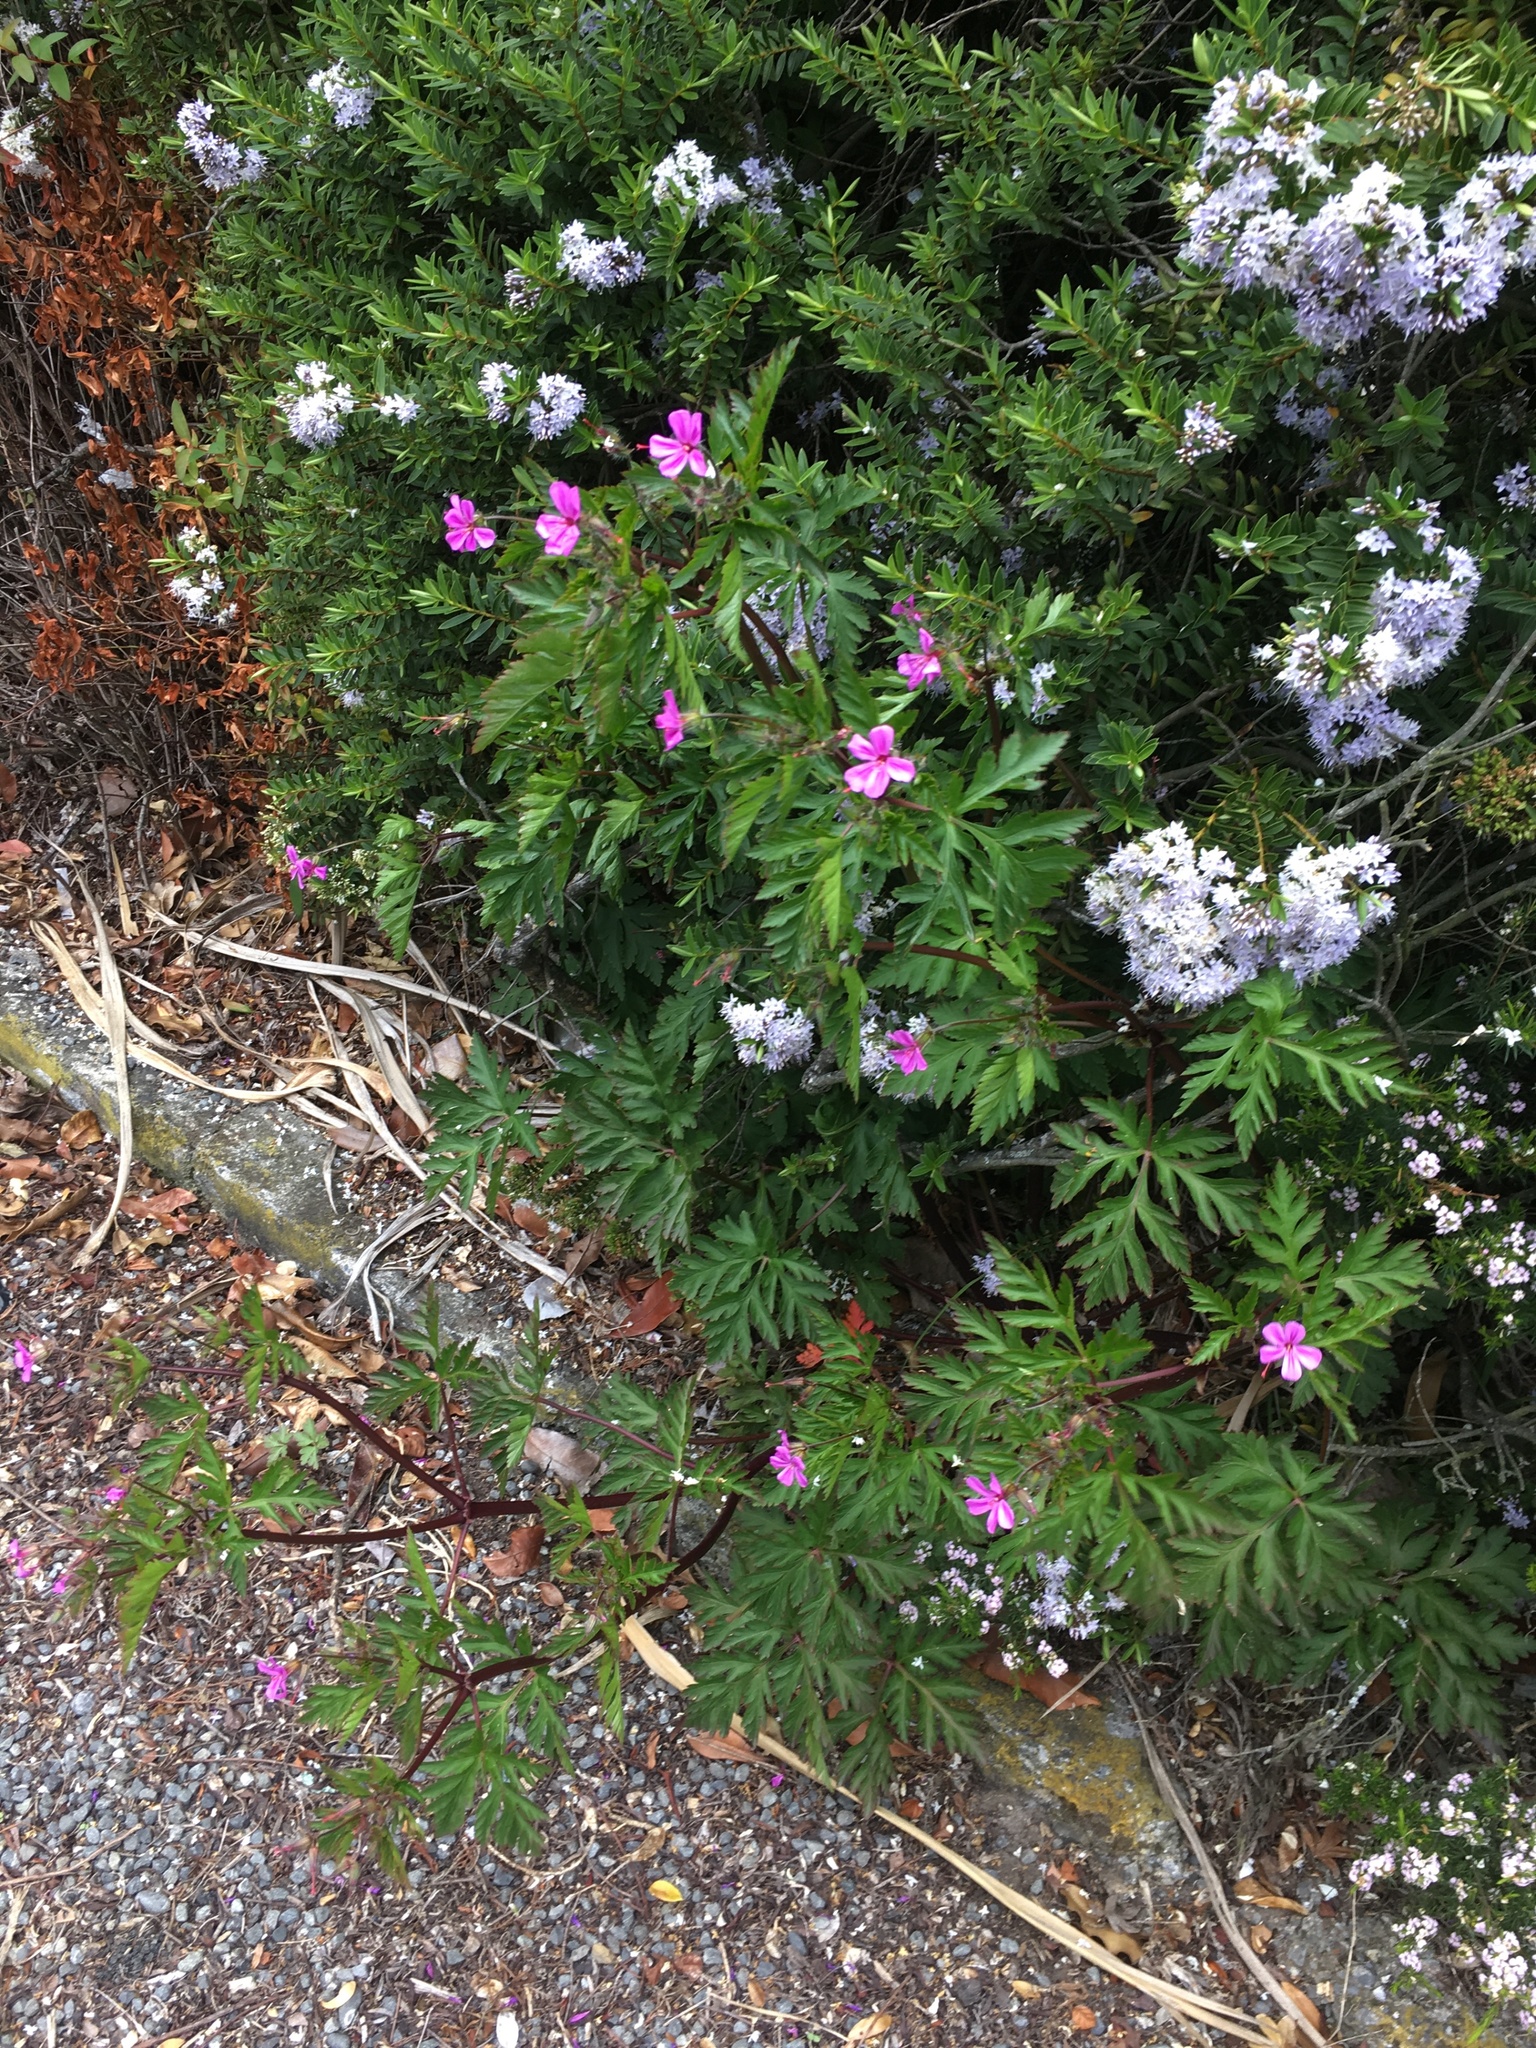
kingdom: Plantae
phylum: Tracheophyta
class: Magnoliopsida
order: Geraniales
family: Geraniaceae
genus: Geranium
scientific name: Geranium yeoi
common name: Greater herb robert
